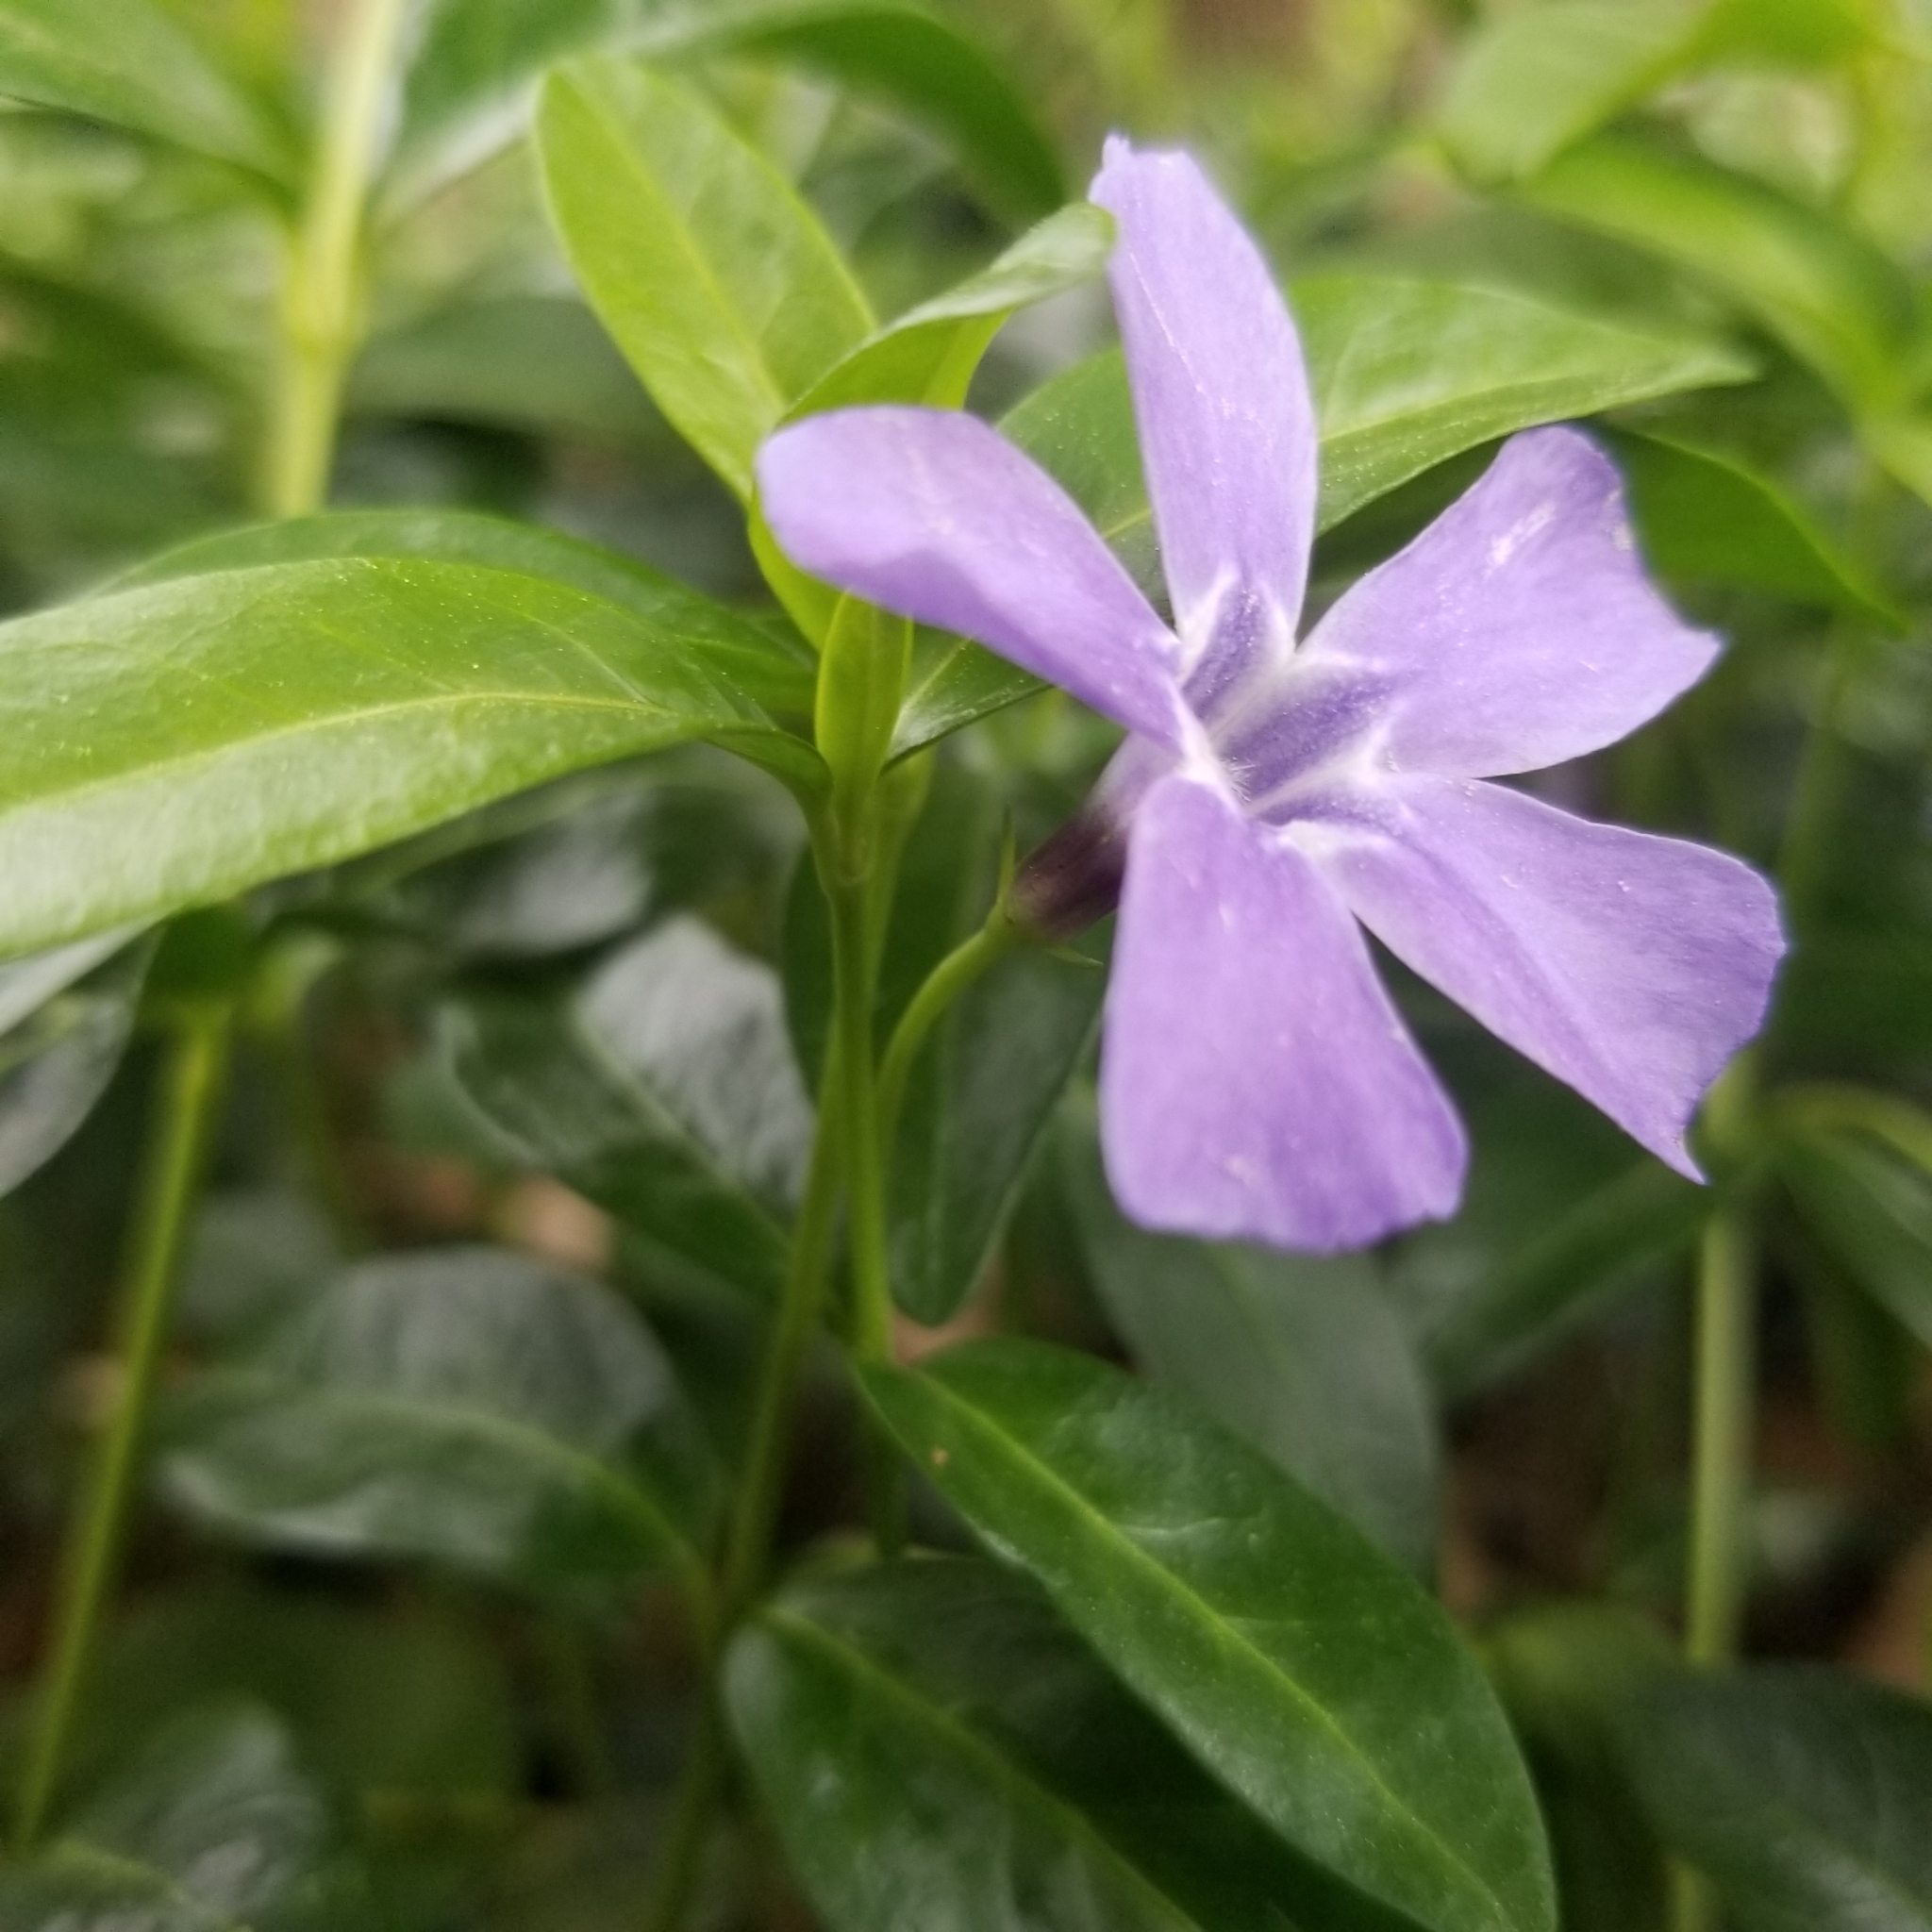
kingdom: Plantae
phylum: Tracheophyta
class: Magnoliopsida
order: Gentianales
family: Apocynaceae
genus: Vinca
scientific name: Vinca minor
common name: Lesser periwinkle
